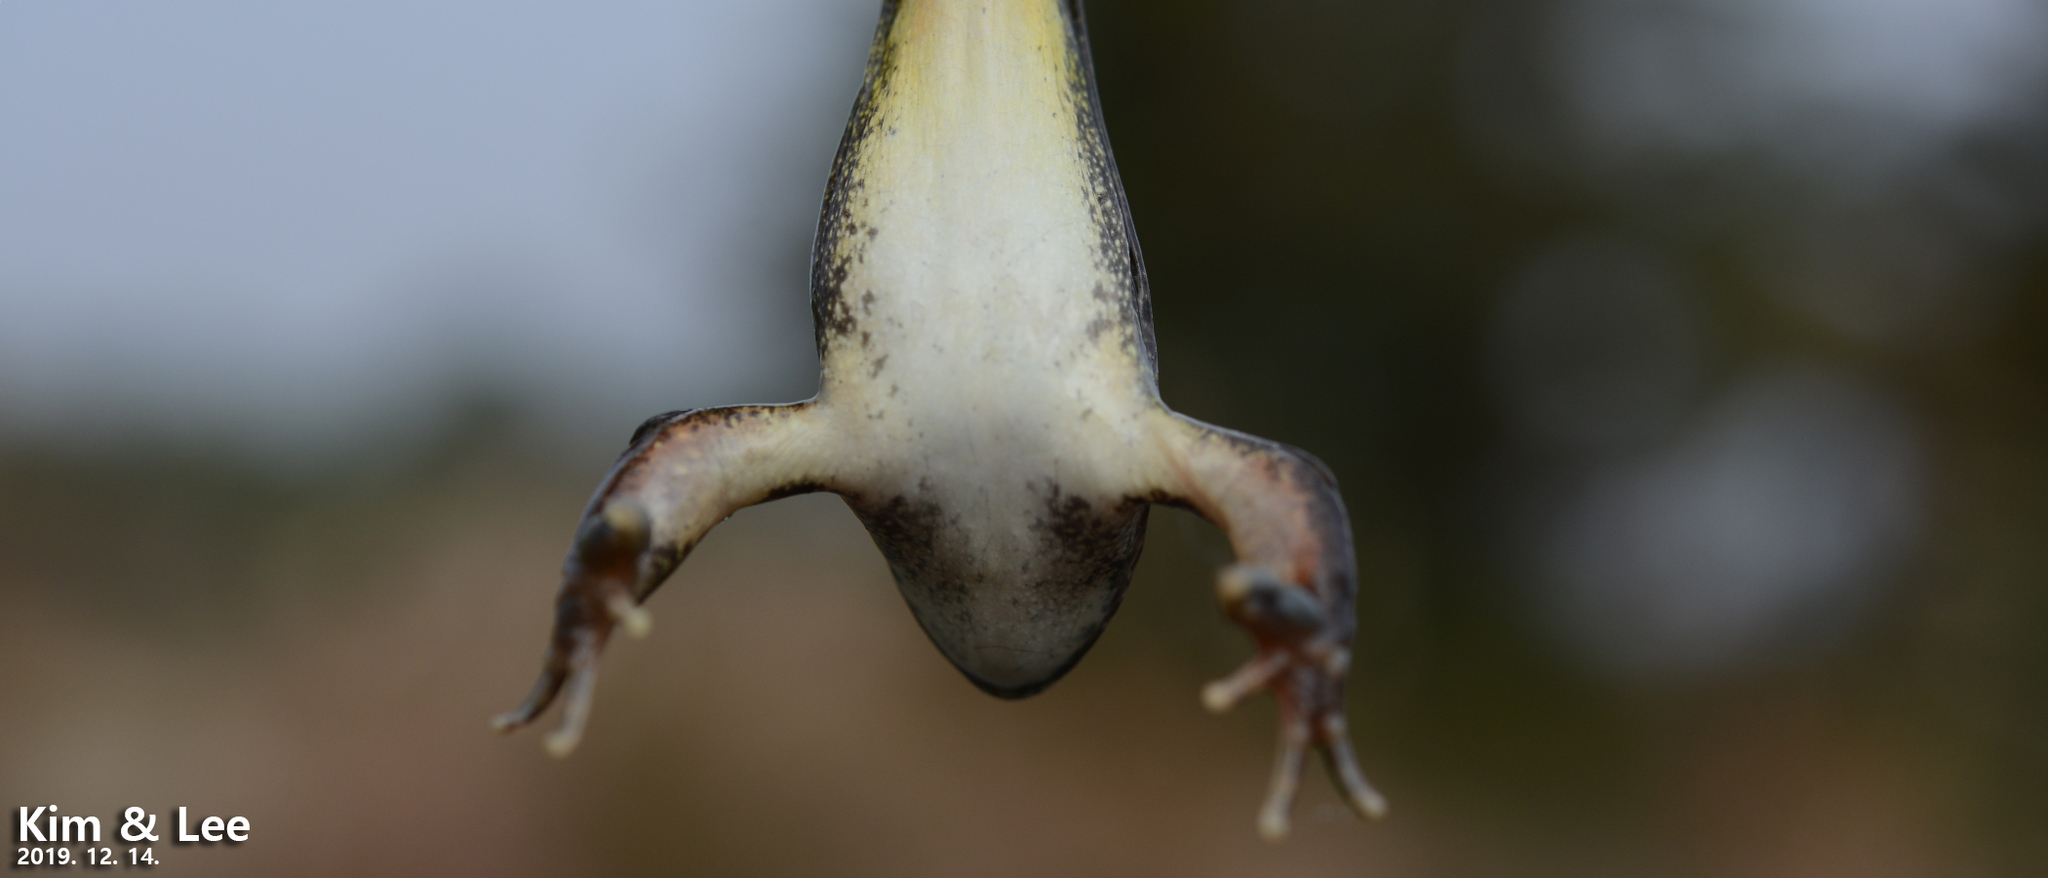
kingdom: Animalia
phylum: Chordata
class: Amphibia
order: Anura
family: Ranidae
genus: Rana
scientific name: Rana uenoi
